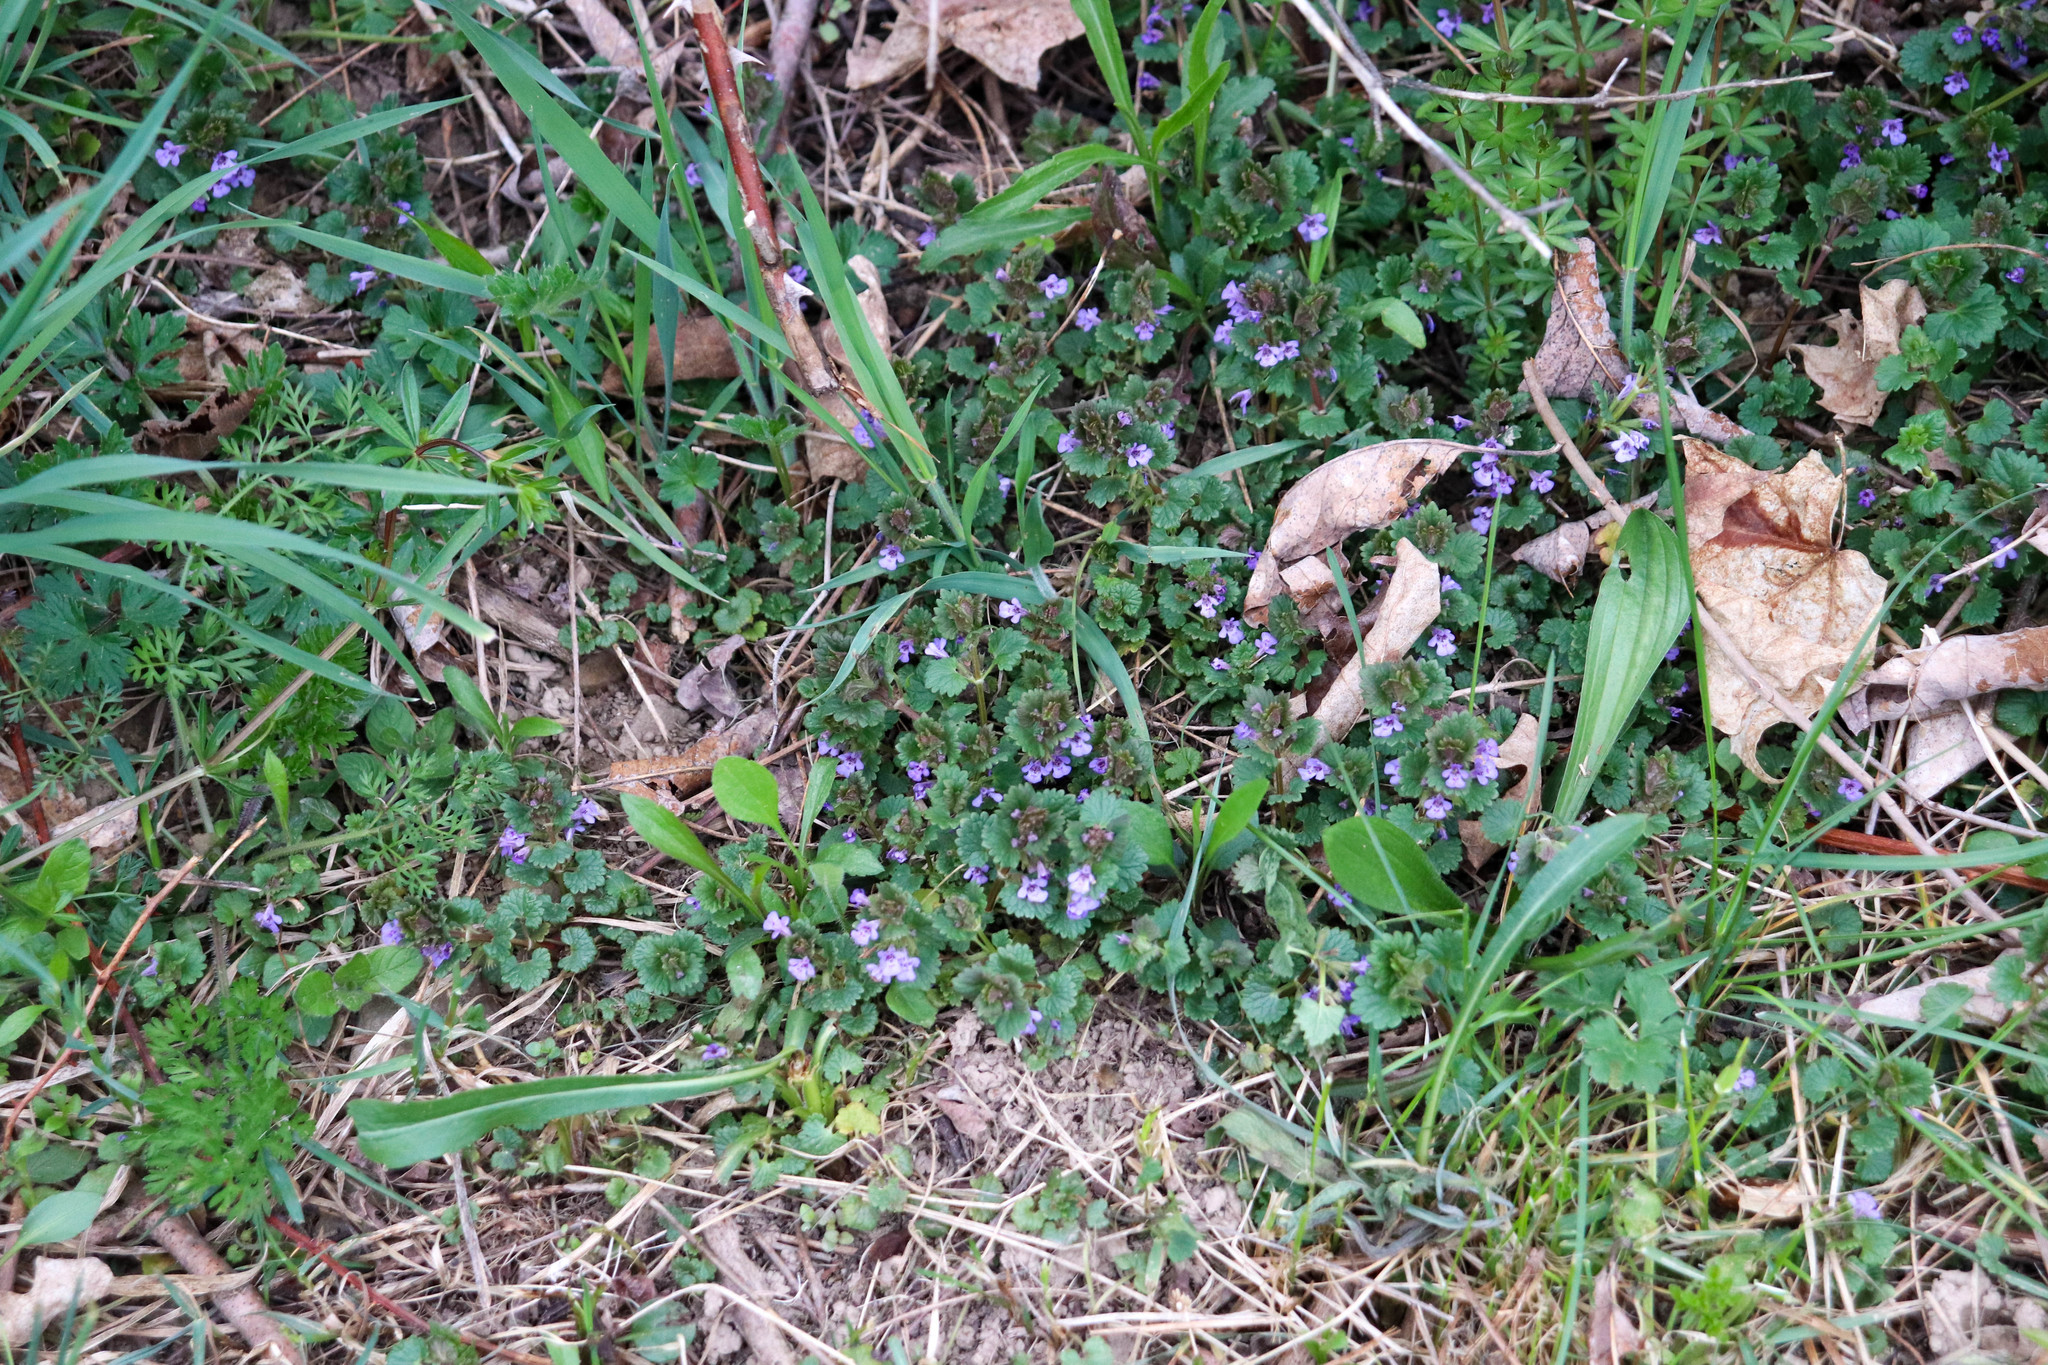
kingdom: Plantae
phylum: Tracheophyta
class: Magnoliopsida
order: Lamiales
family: Lamiaceae
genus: Glechoma
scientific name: Glechoma hederacea
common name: Ground ivy
